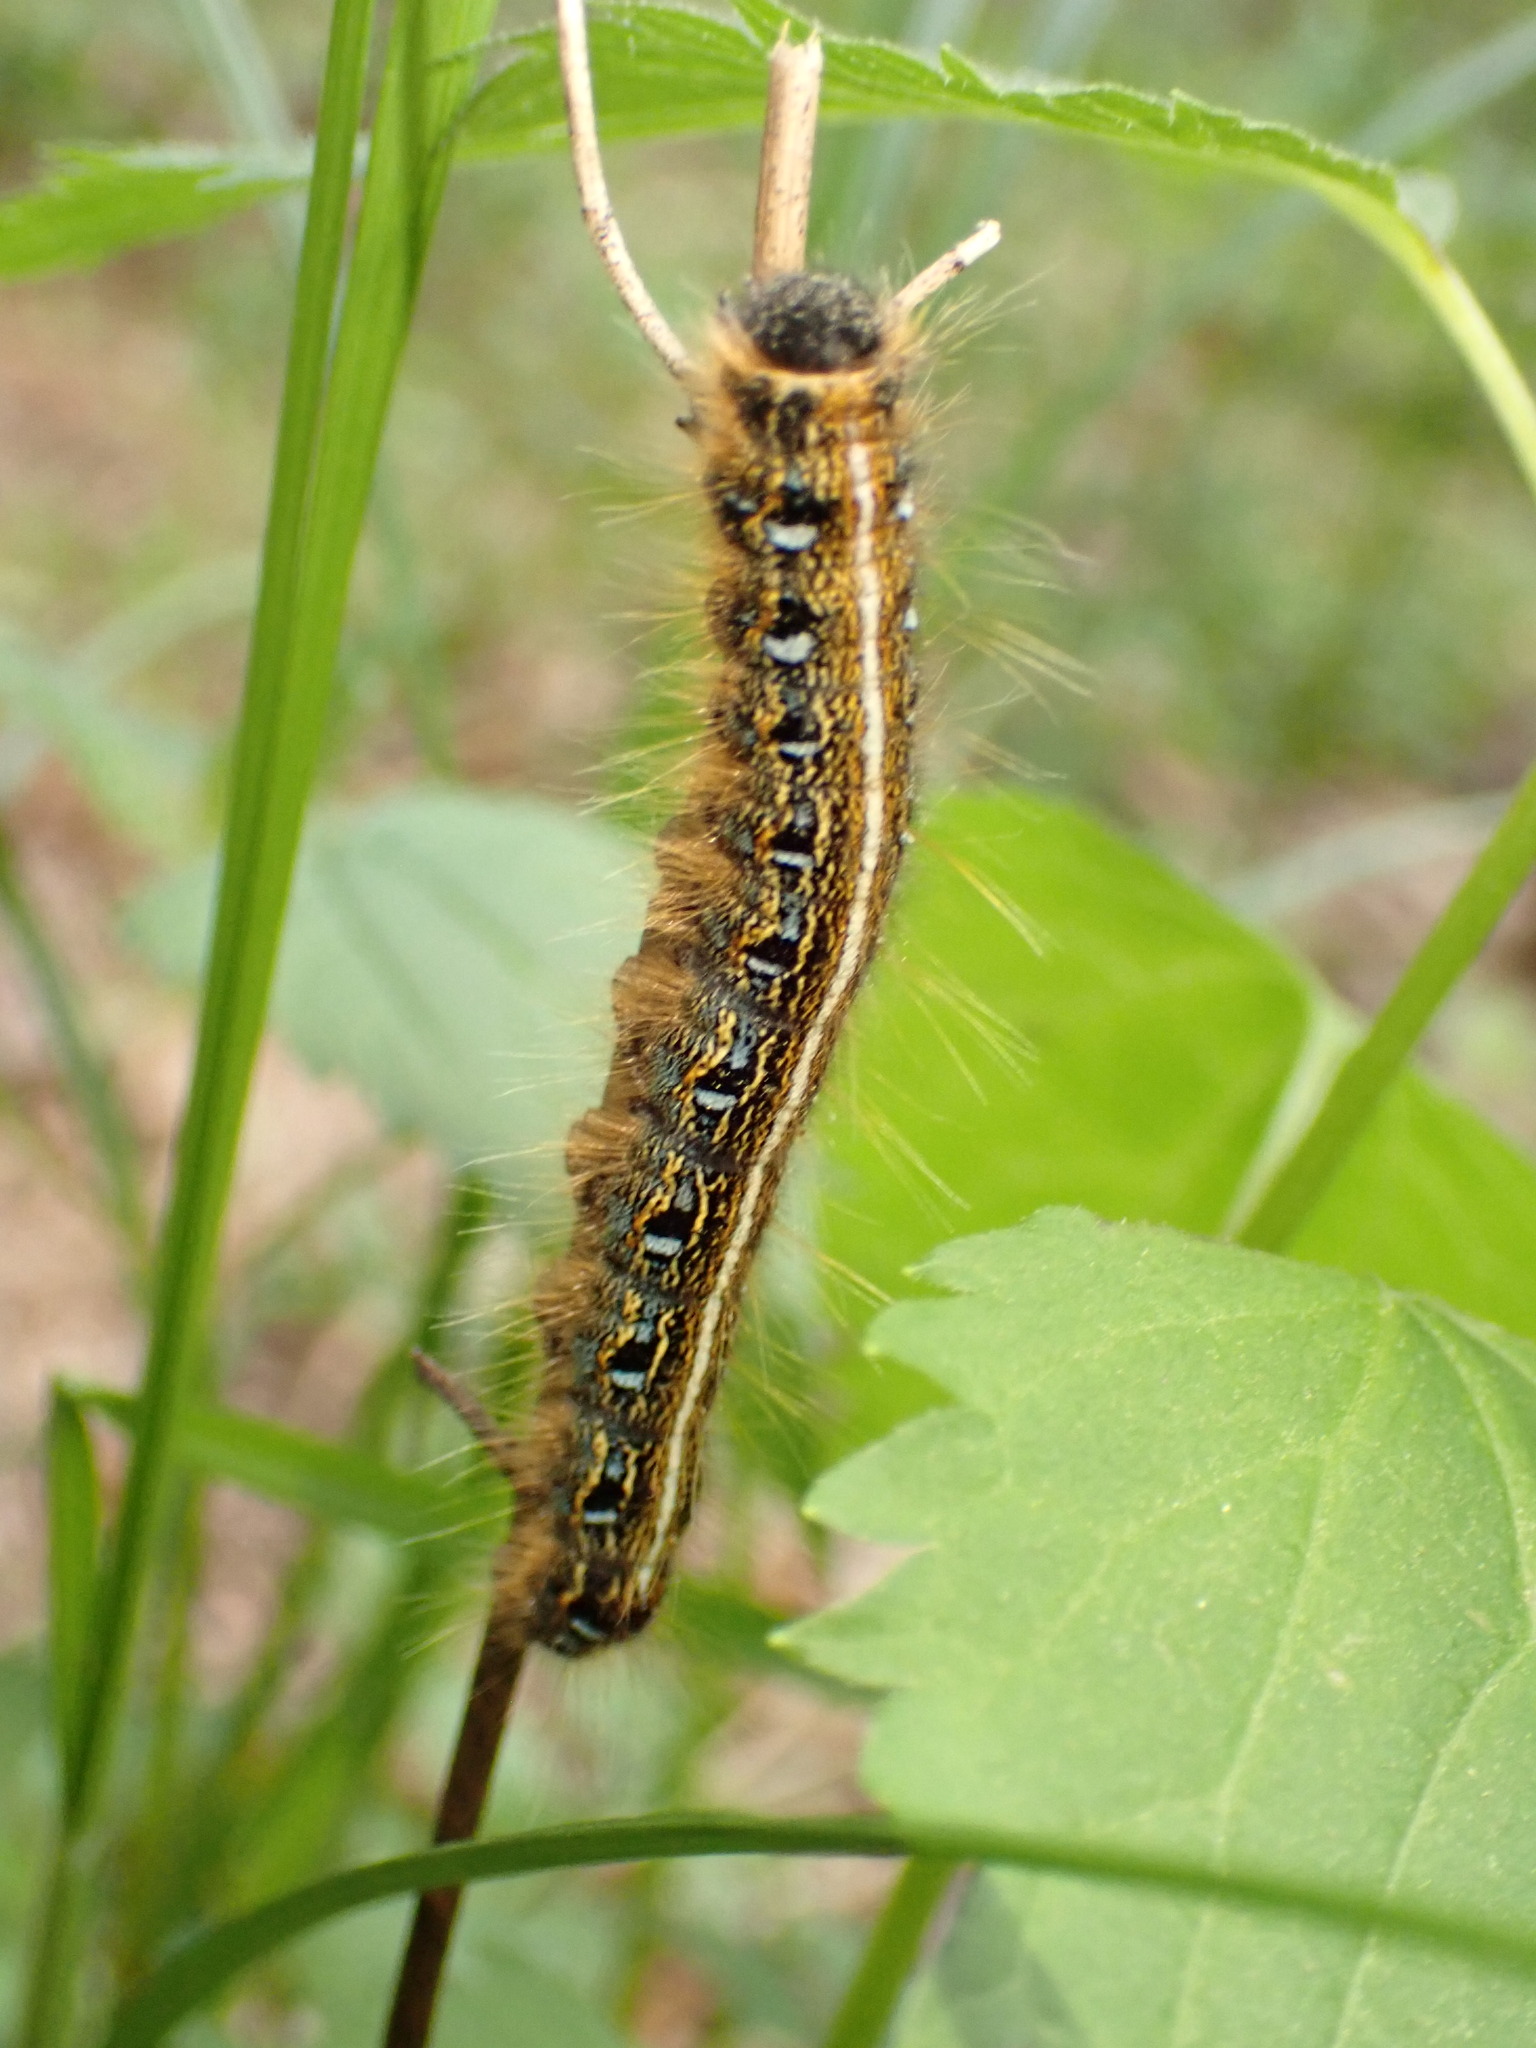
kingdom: Animalia
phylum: Arthropoda
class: Insecta
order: Lepidoptera
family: Lasiocampidae
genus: Malacosoma
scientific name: Malacosoma americana
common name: Eastern tent caterpillar moth
